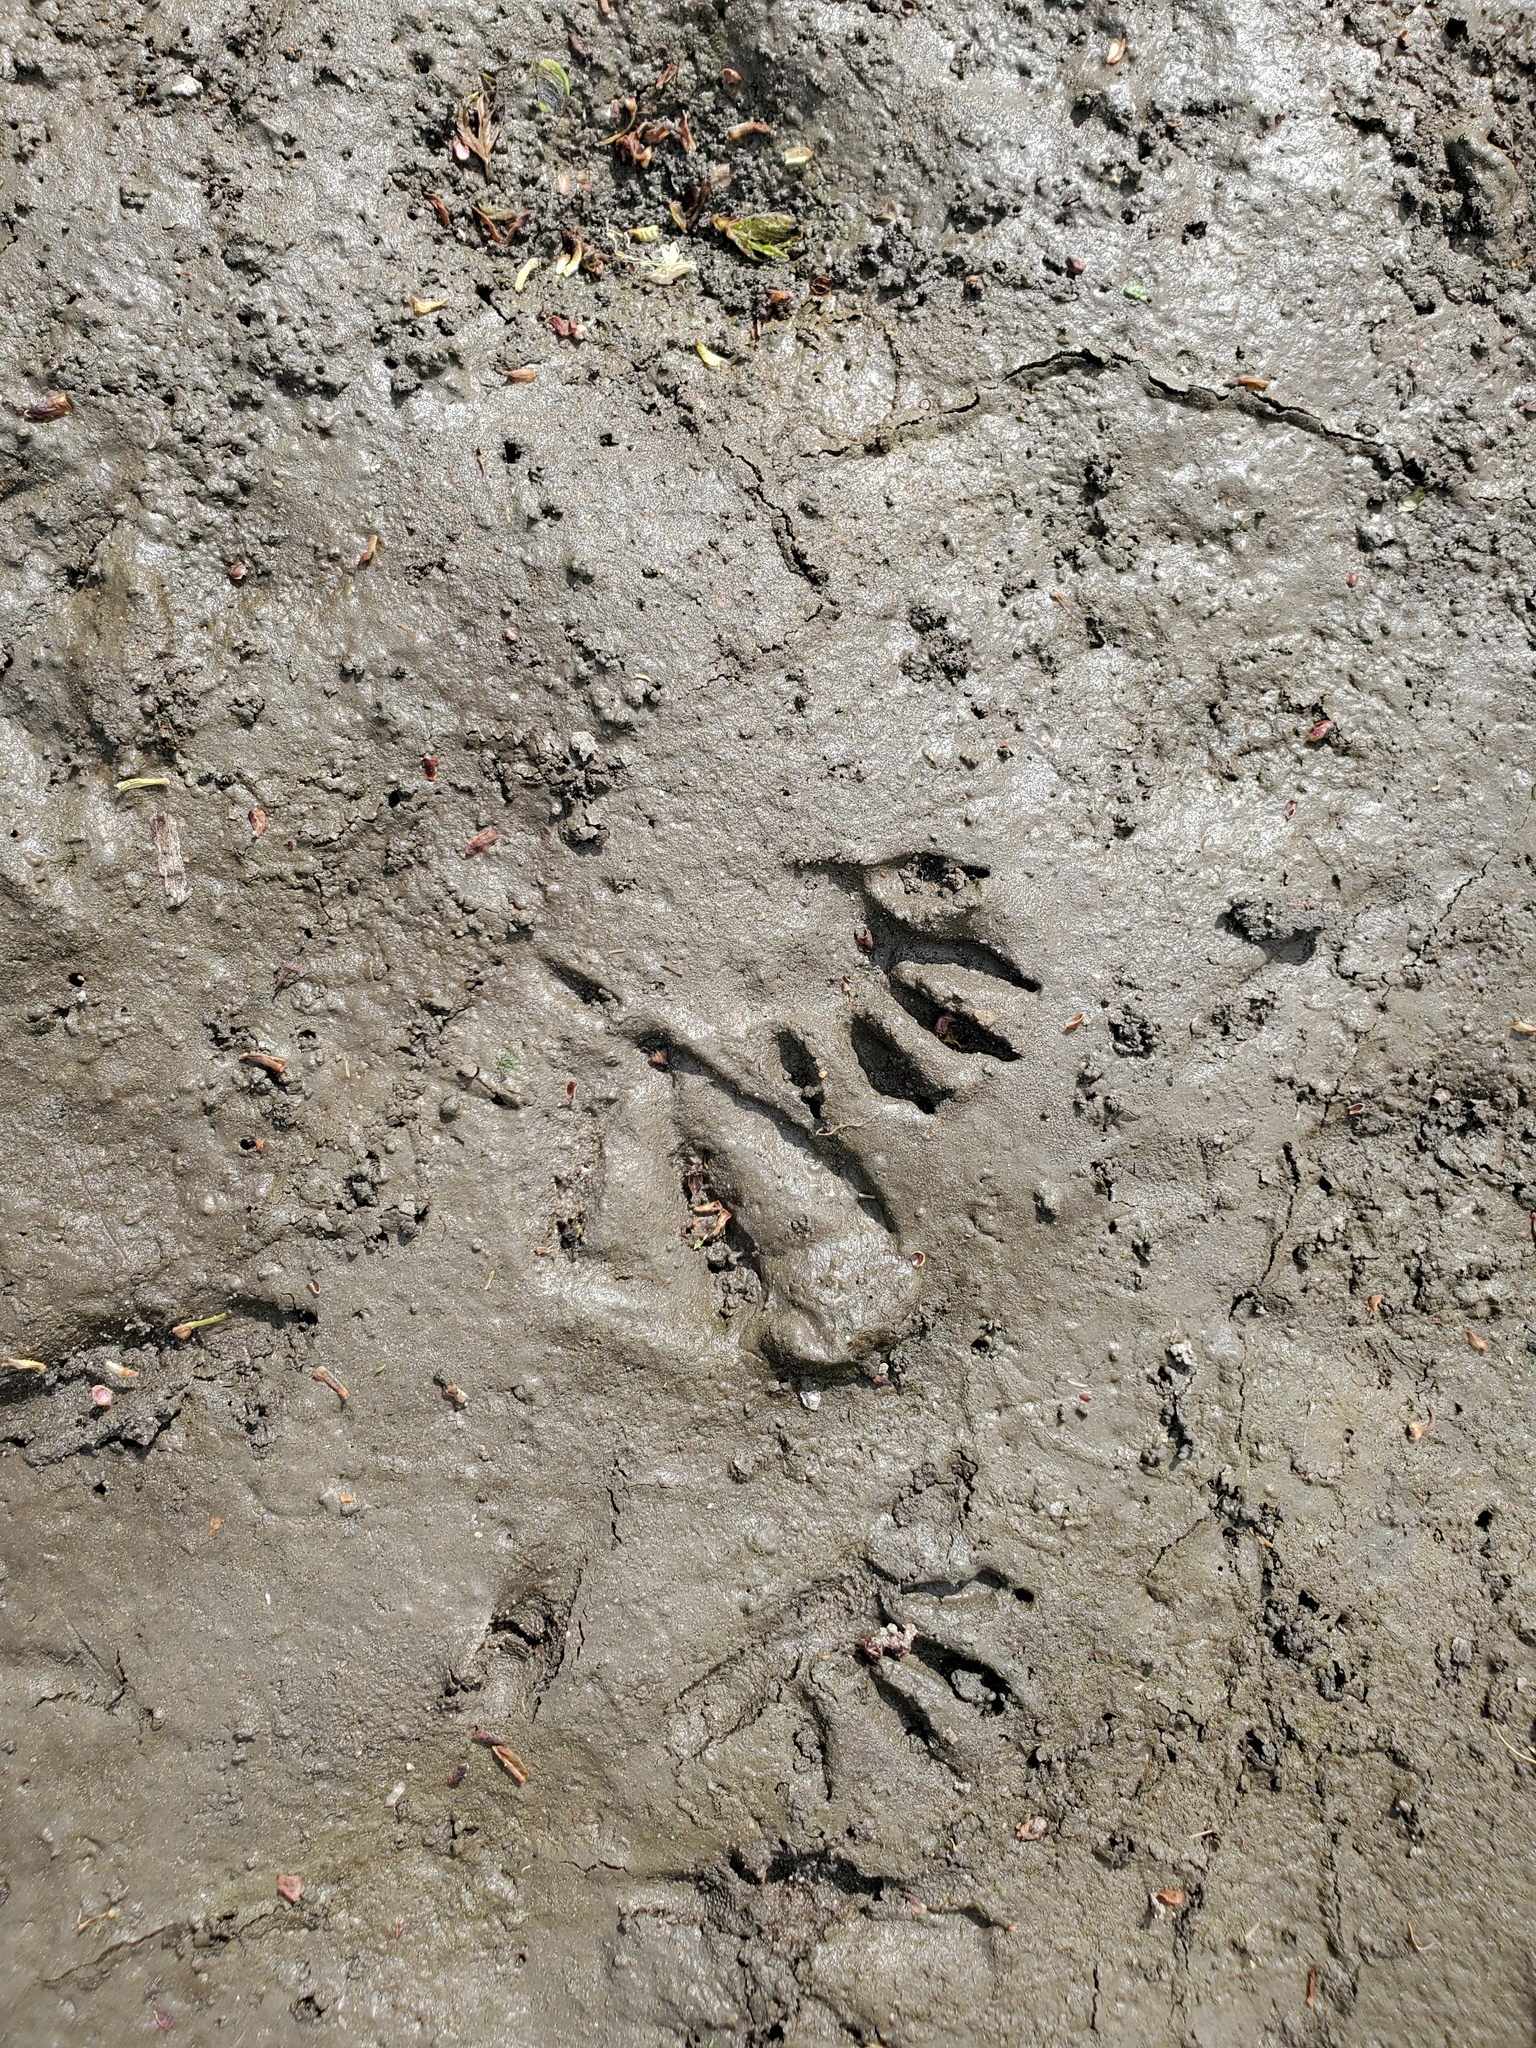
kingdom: Animalia
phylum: Chordata
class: Mammalia
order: Carnivora
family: Procyonidae
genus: Procyon
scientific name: Procyon lotor
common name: Raccoon
